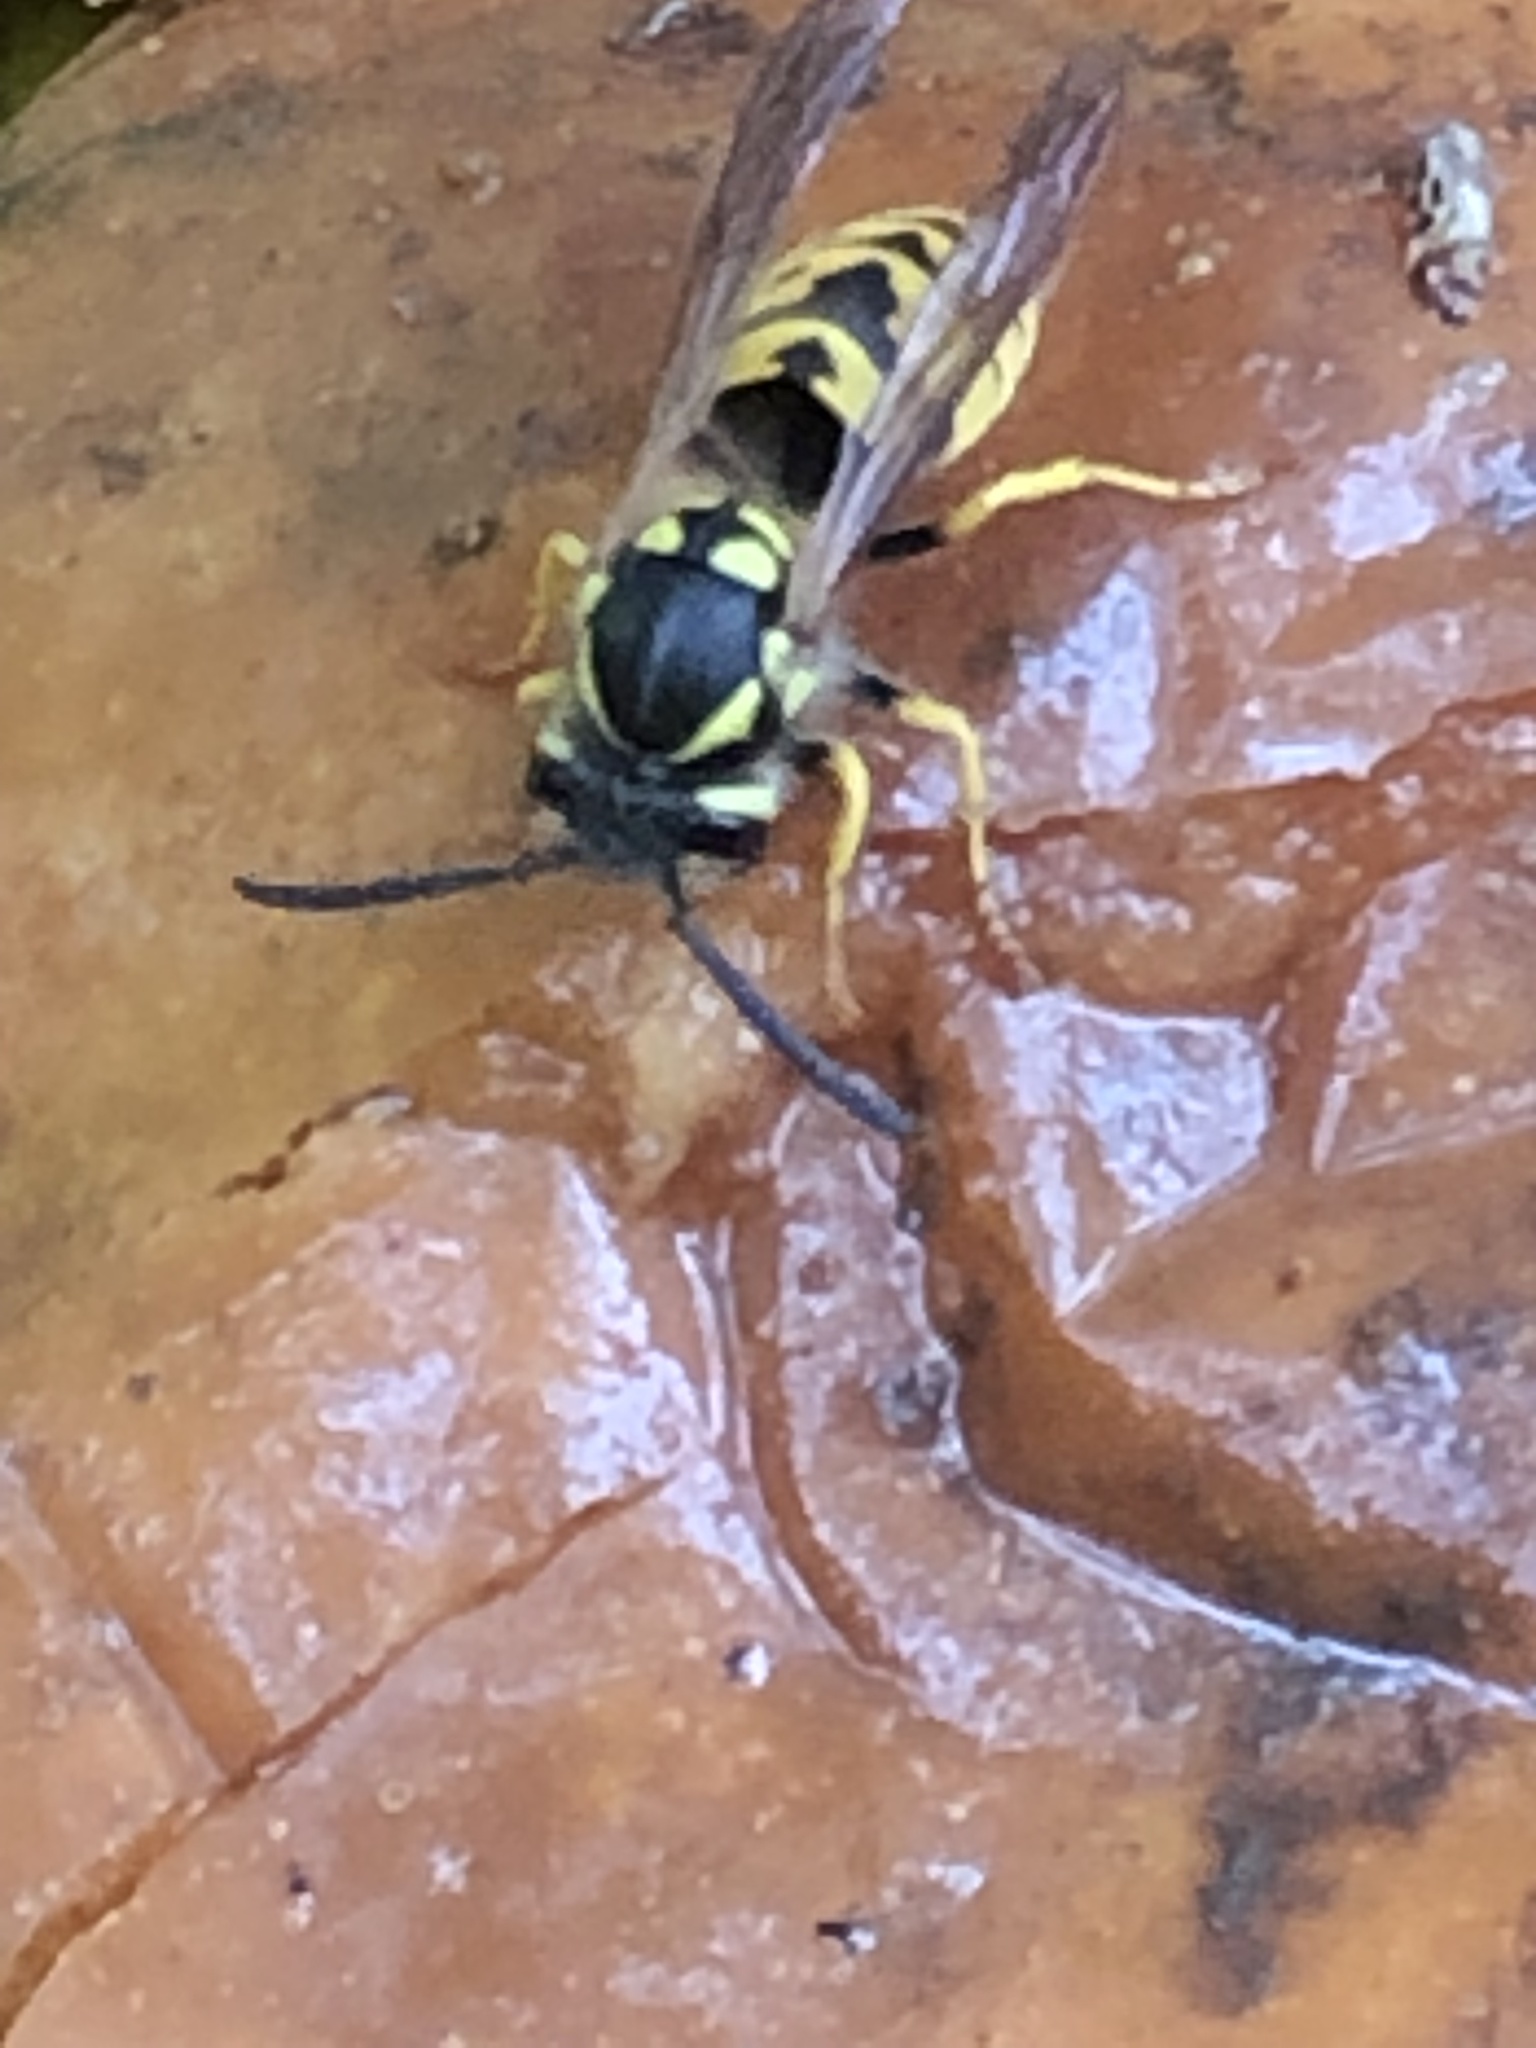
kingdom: Animalia
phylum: Arthropoda
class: Insecta
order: Hymenoptera
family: Vespidae
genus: Vespula
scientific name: Vespula germanica
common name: German wasp
